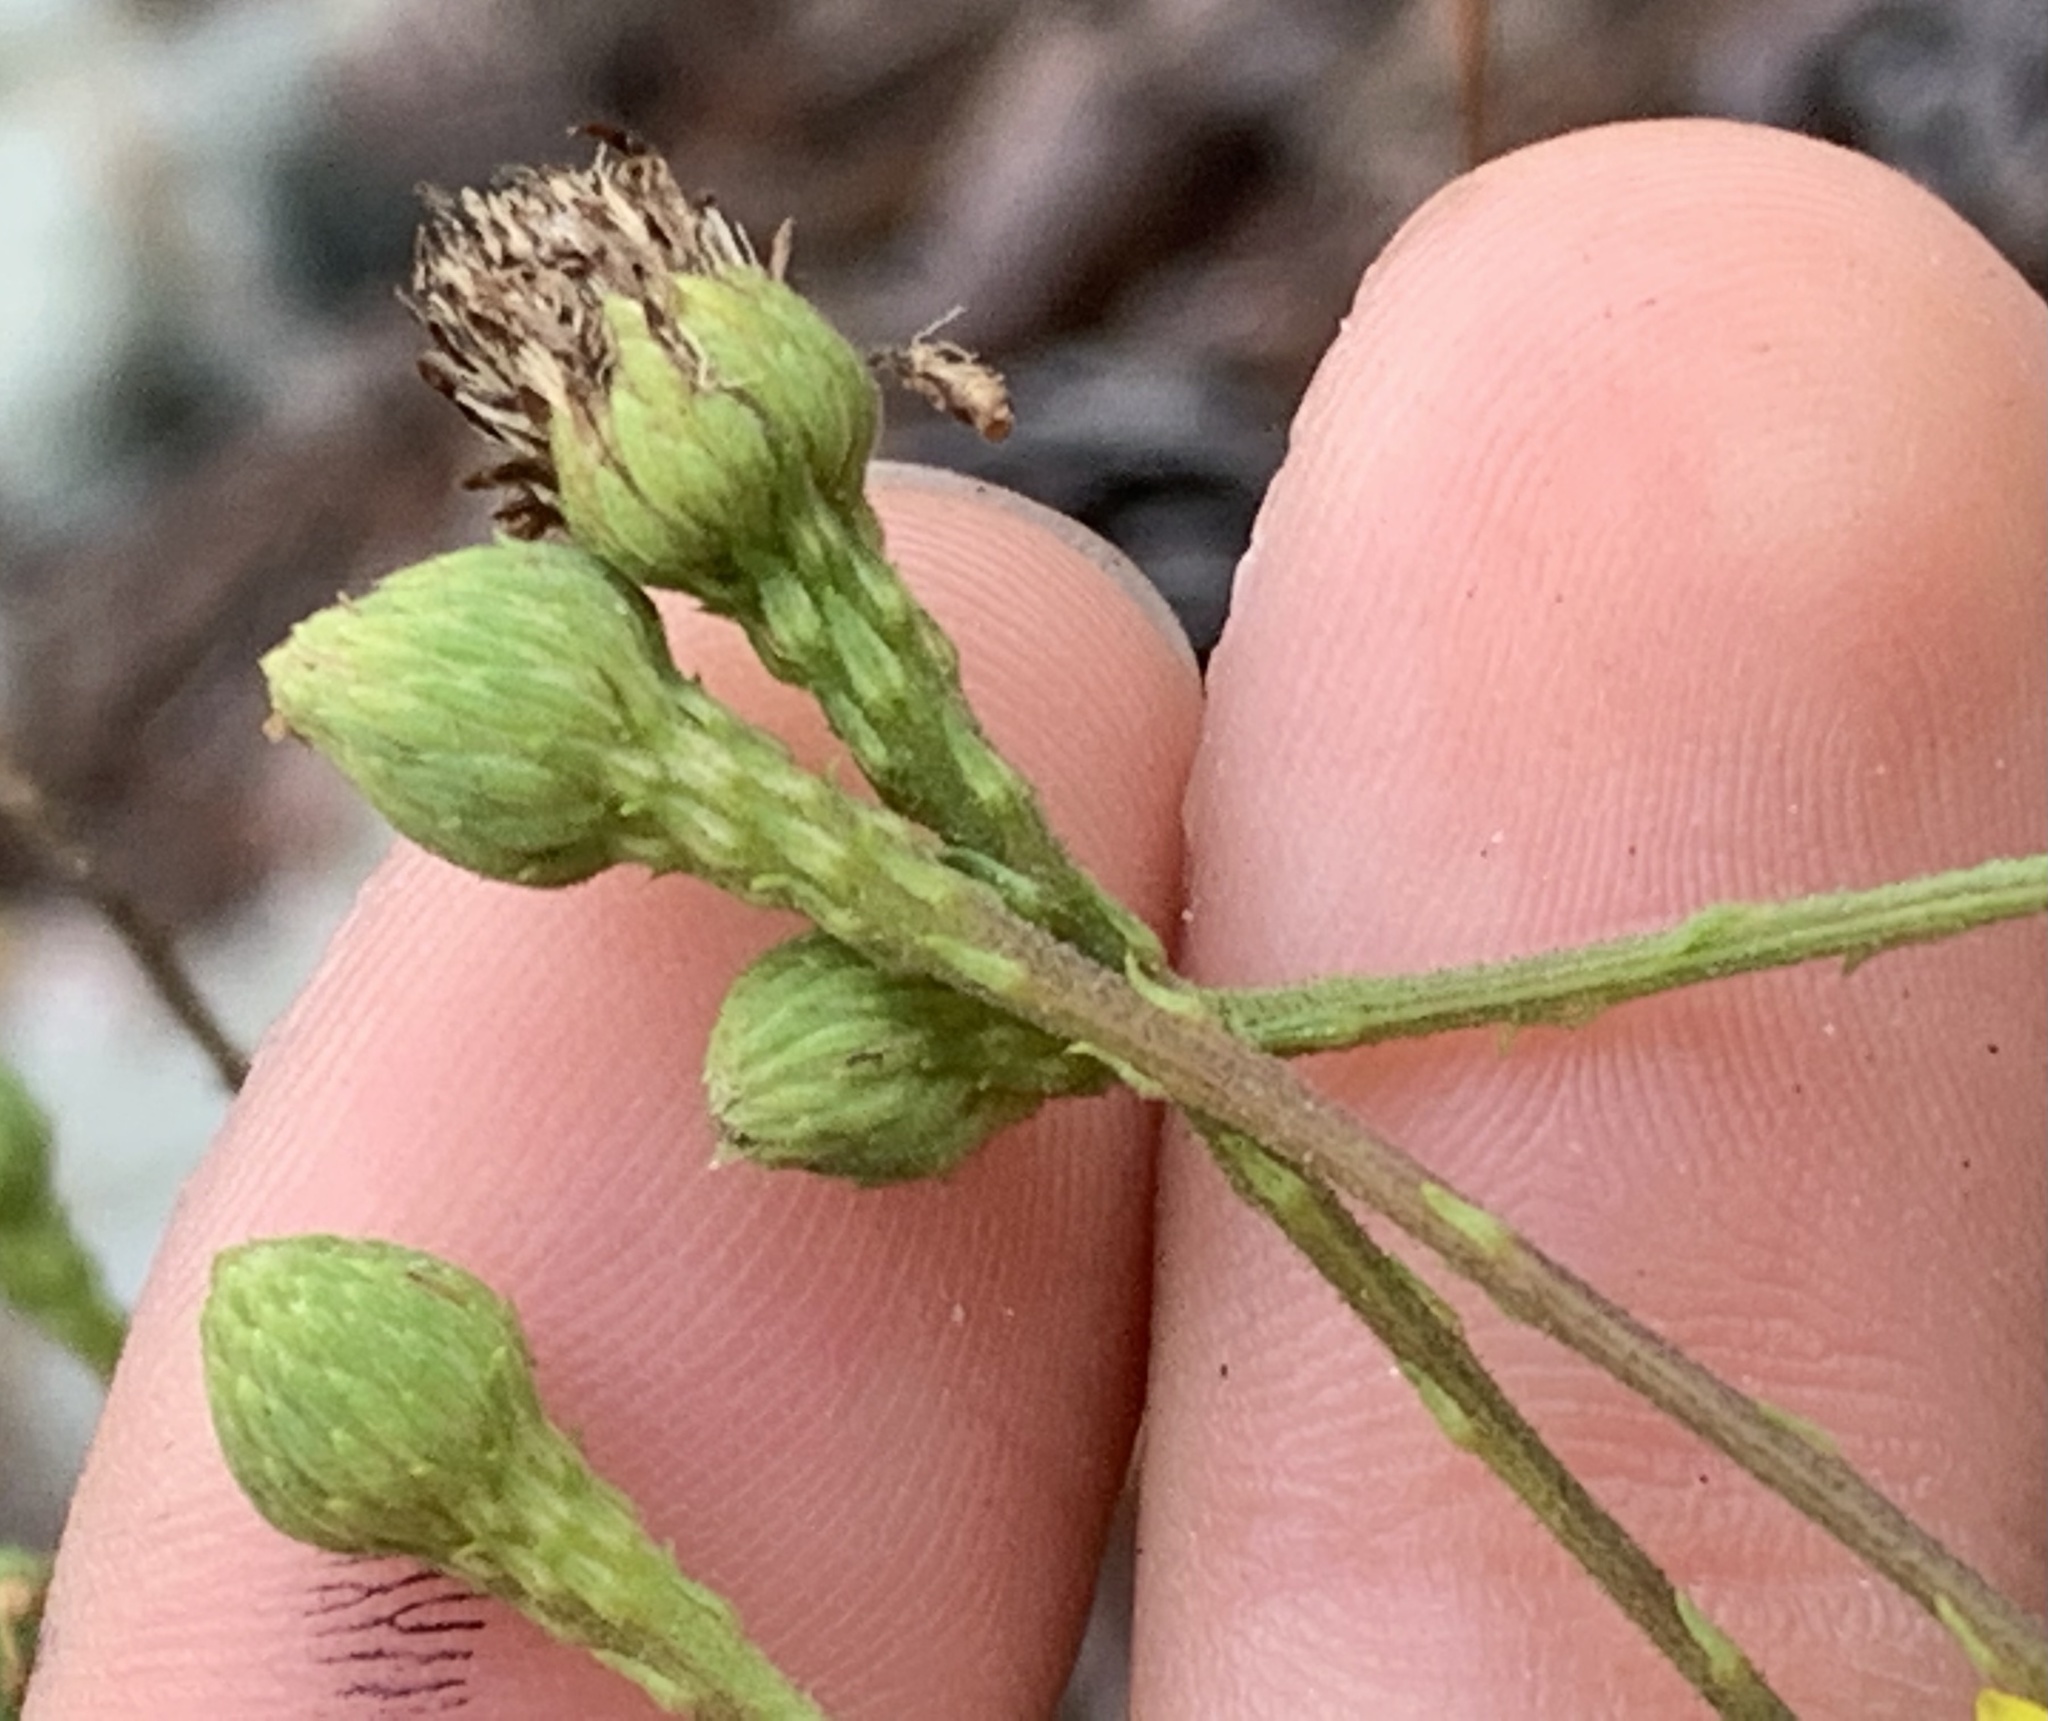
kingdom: Plantae
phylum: Tracheophyta
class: Magnoliopsida
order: Asterales
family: Asteraceae
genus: Chrysopsis
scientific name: Chrysopsis scabrella
